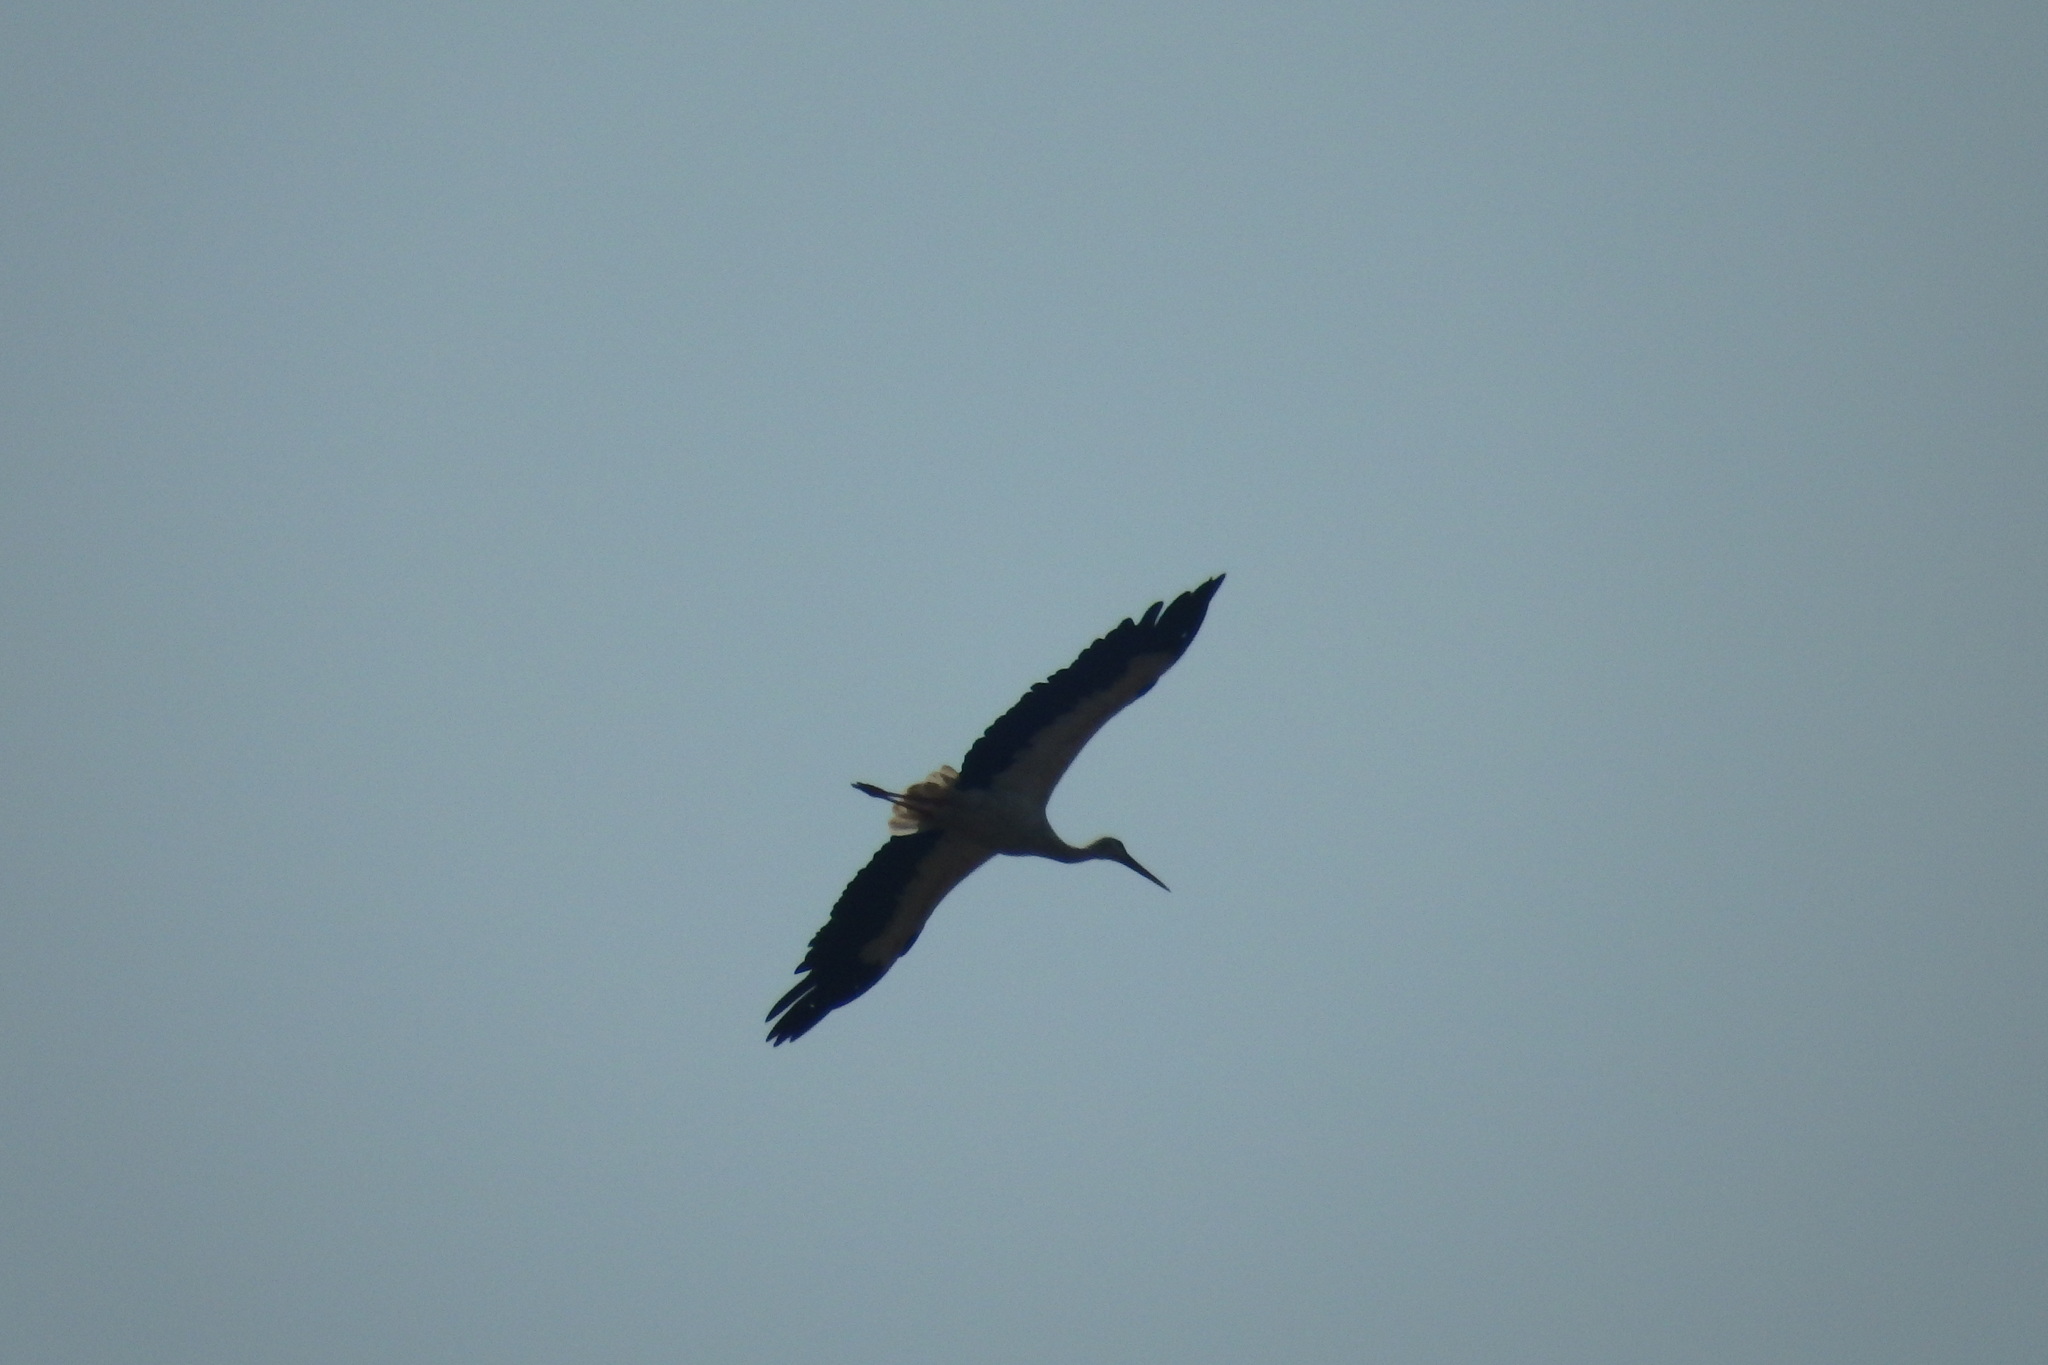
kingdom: Animalia
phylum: Chordata
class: Aves
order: Ciconiiformes
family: Ciconiidae
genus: Ciconia
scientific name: Ciconia ciconia
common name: White stork
